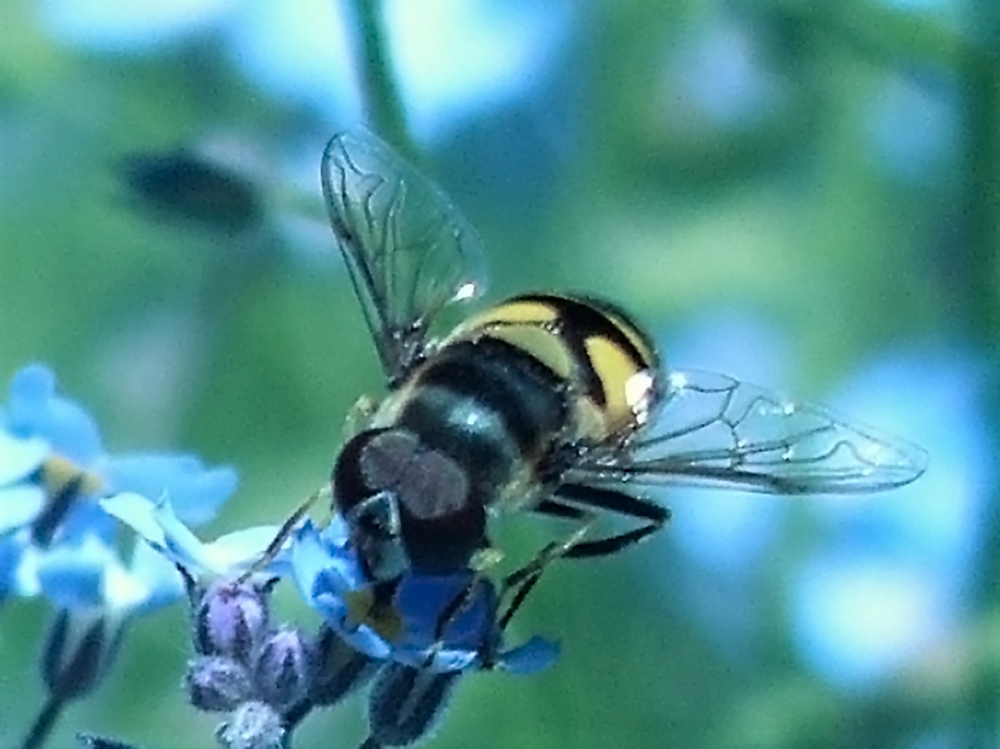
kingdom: Animalia
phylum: Arthropoda
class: Insecta
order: Diptera
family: Syrphidae
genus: Eristalis
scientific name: Eristalis transversa
